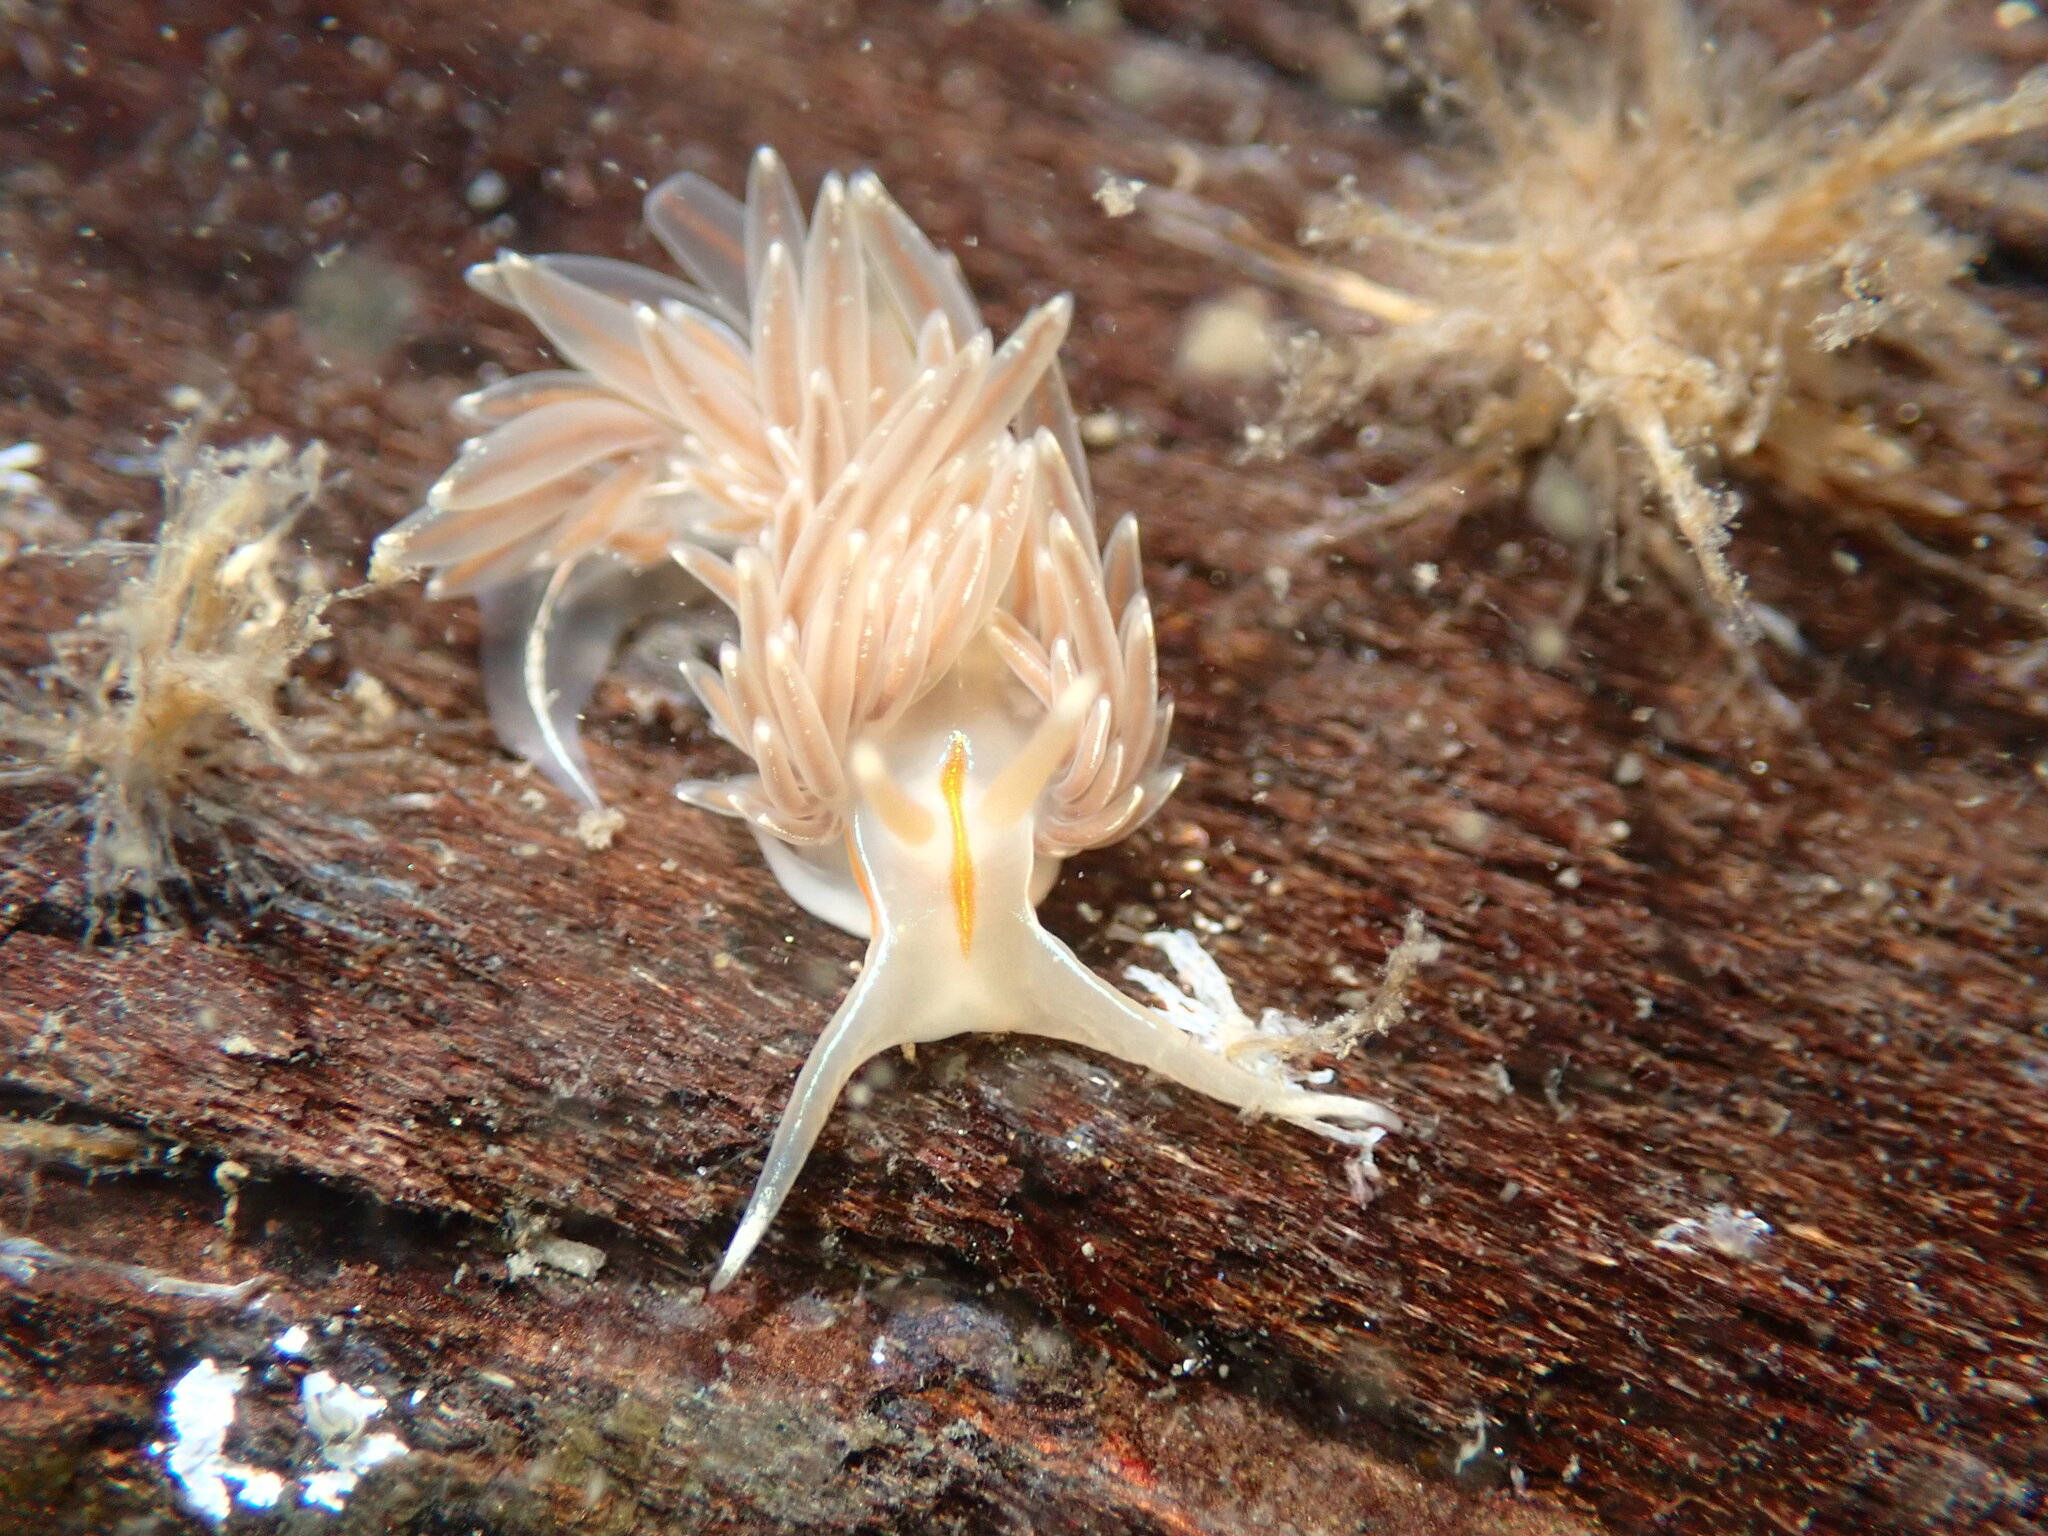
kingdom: Animalia
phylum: Mollusca
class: Gastropoda
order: Nudibranchia
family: Myrrhinidae
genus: Hermissenda
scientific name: Hermissenda crassicornis
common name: Hermissenda
